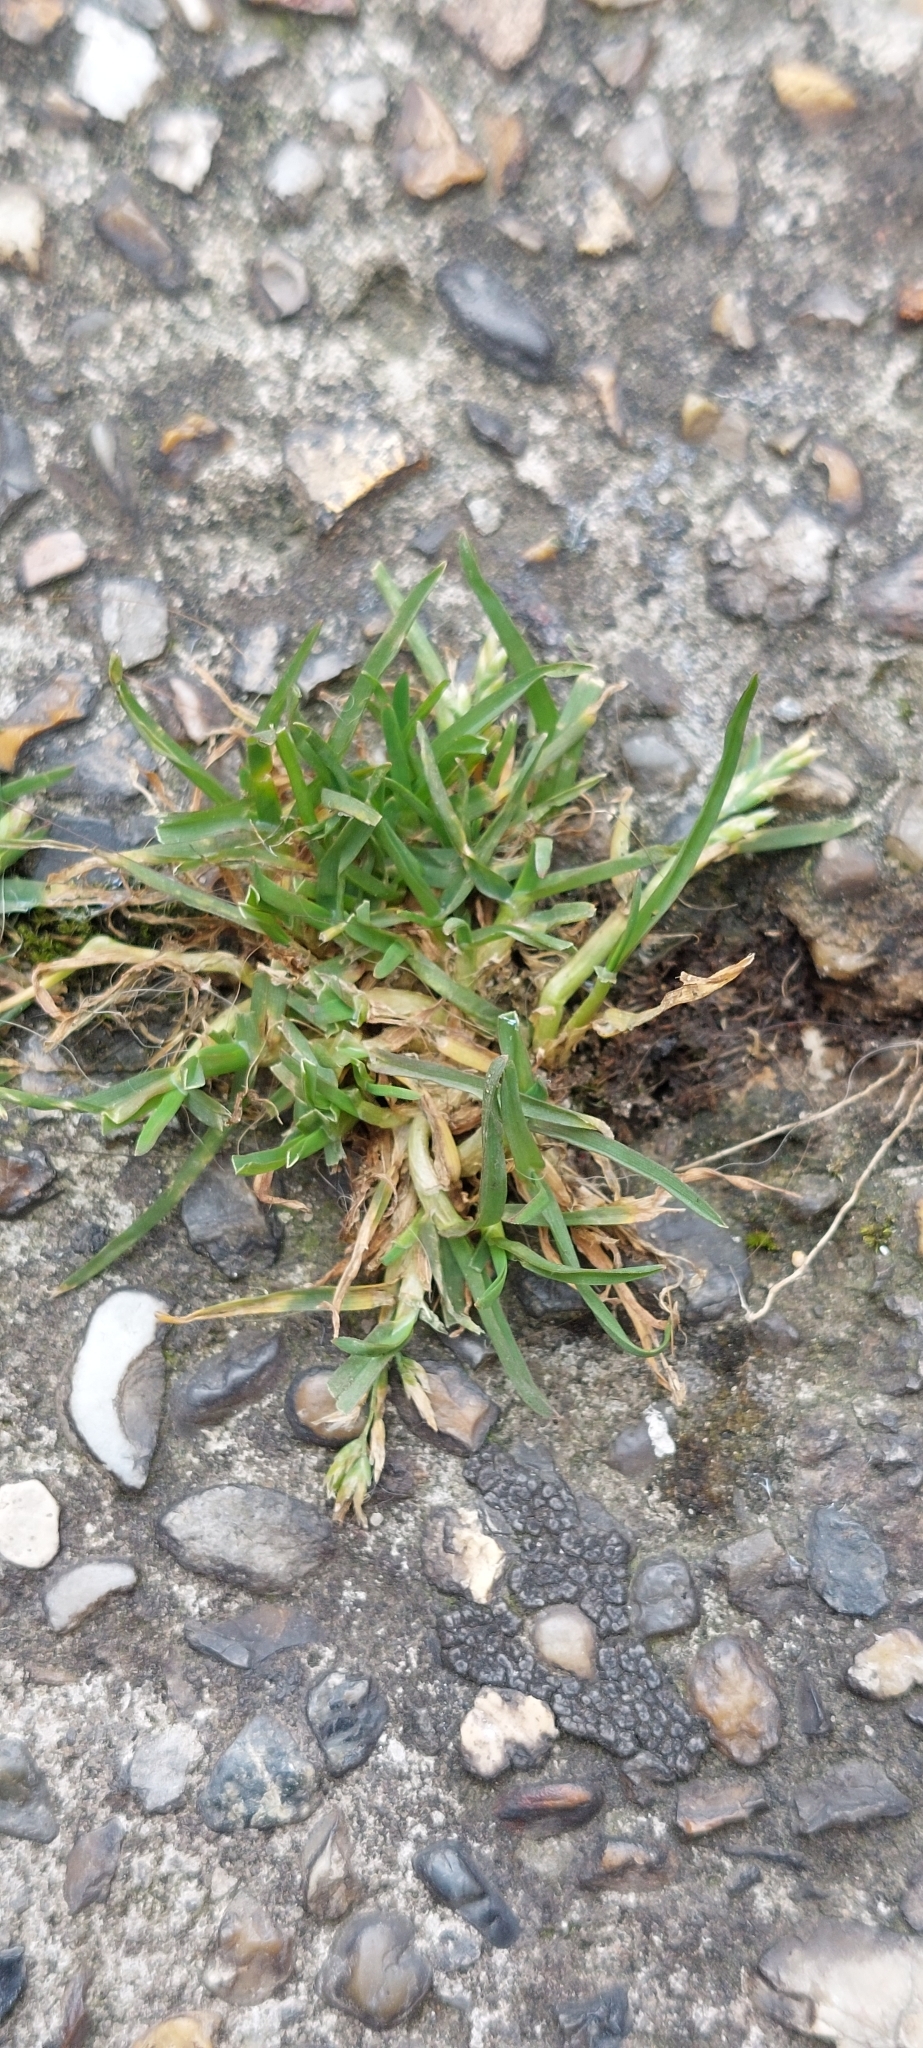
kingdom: Plantae
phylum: Tracheophyta
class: Liliopsida
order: Poales
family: Poaceae
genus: Poa
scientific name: Poa annua
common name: Annual bluegrass
